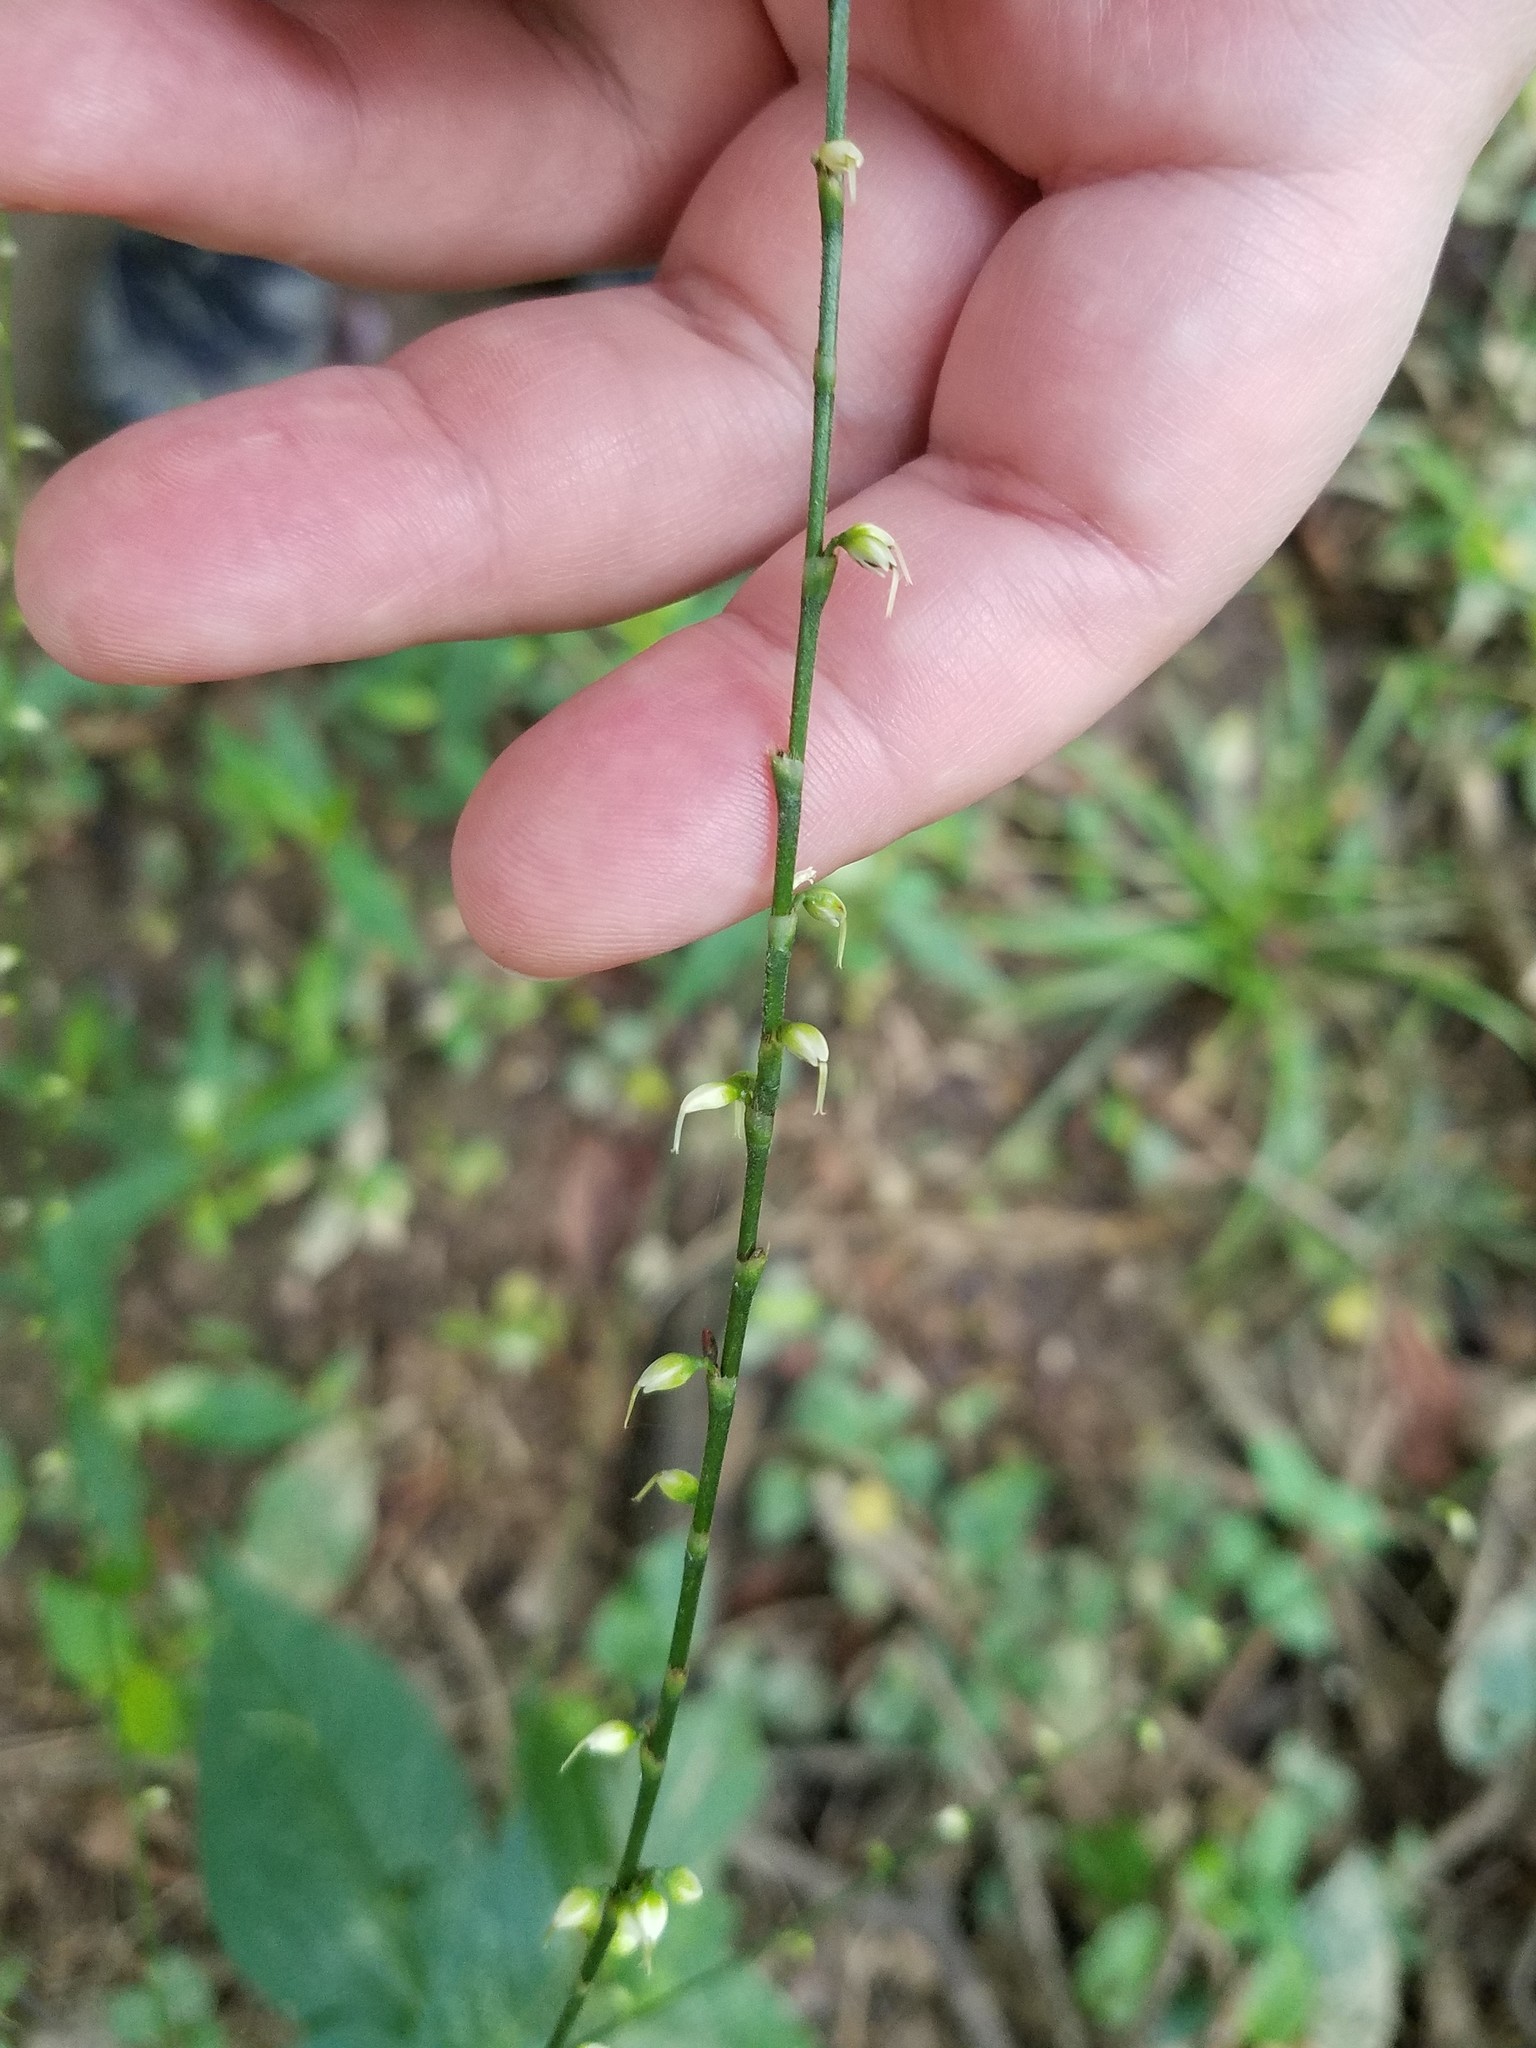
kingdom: Plantae
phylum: Tracheophyta
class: Magnoliopsida
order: Caryophyllales
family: Polygonaceae
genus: Persicaria
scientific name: Persicaria virginiana
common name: Jumpseed
